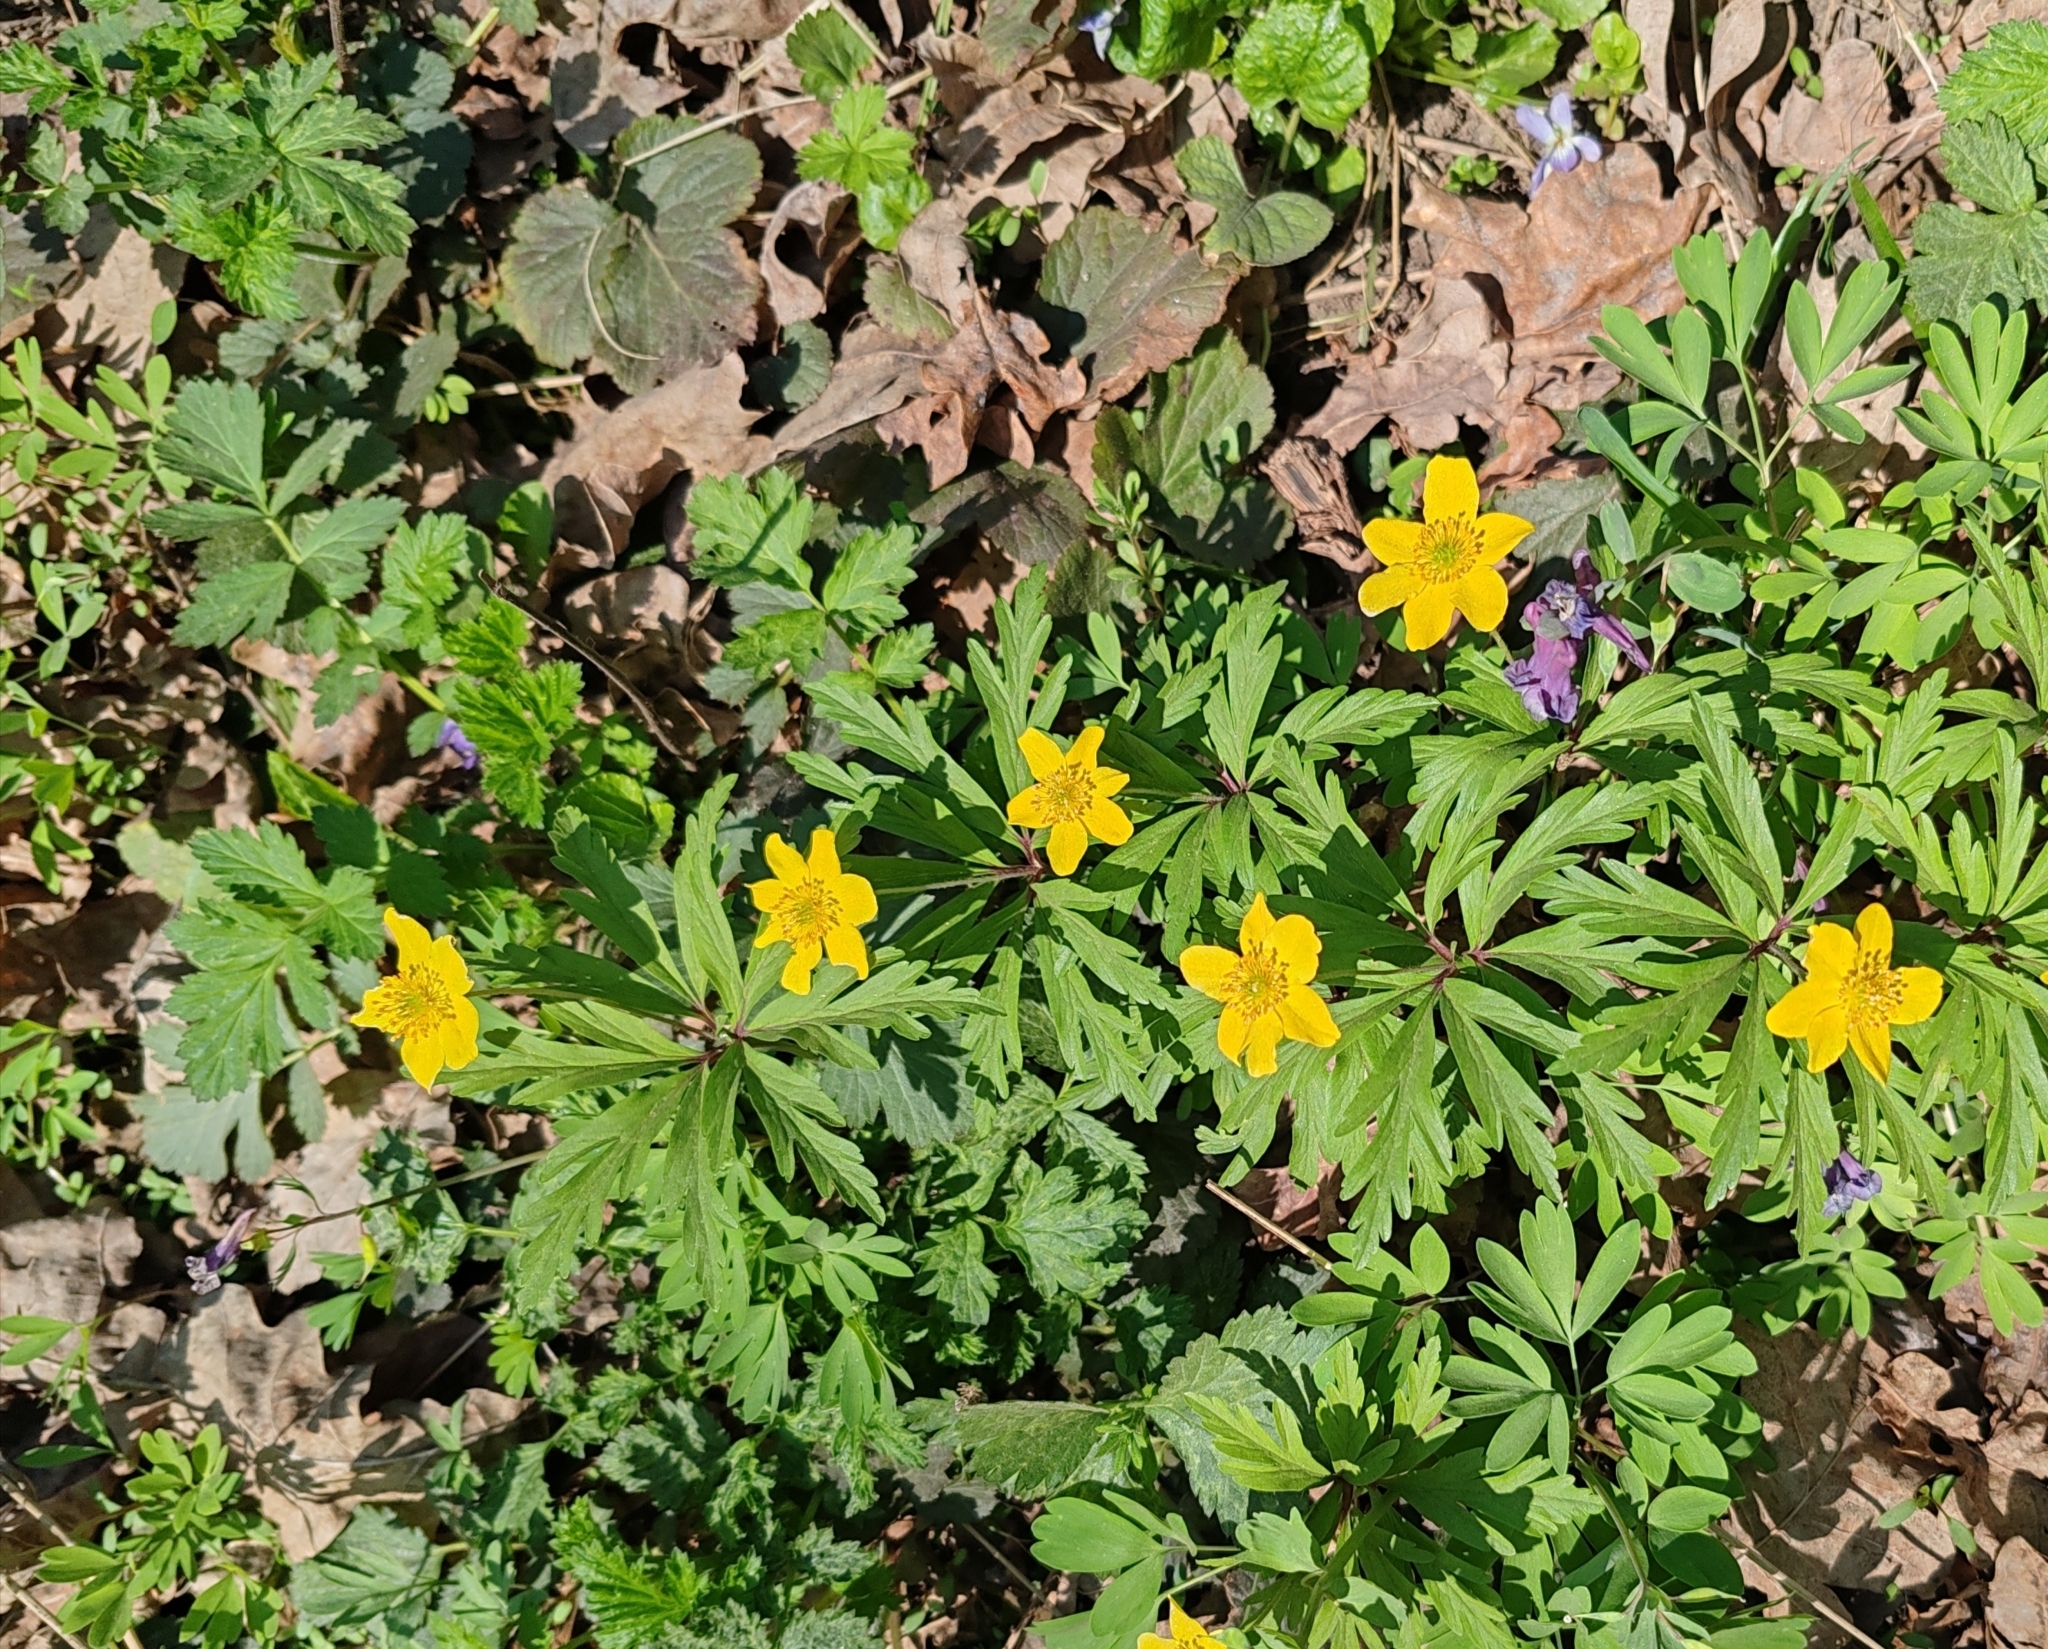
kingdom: Plantae
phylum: Tracheophyta
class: Magnoliopsida
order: Ranunculales
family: Ranunculaceae
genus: Anemone
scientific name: Anemone ranunculoides
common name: Yellow anemone
